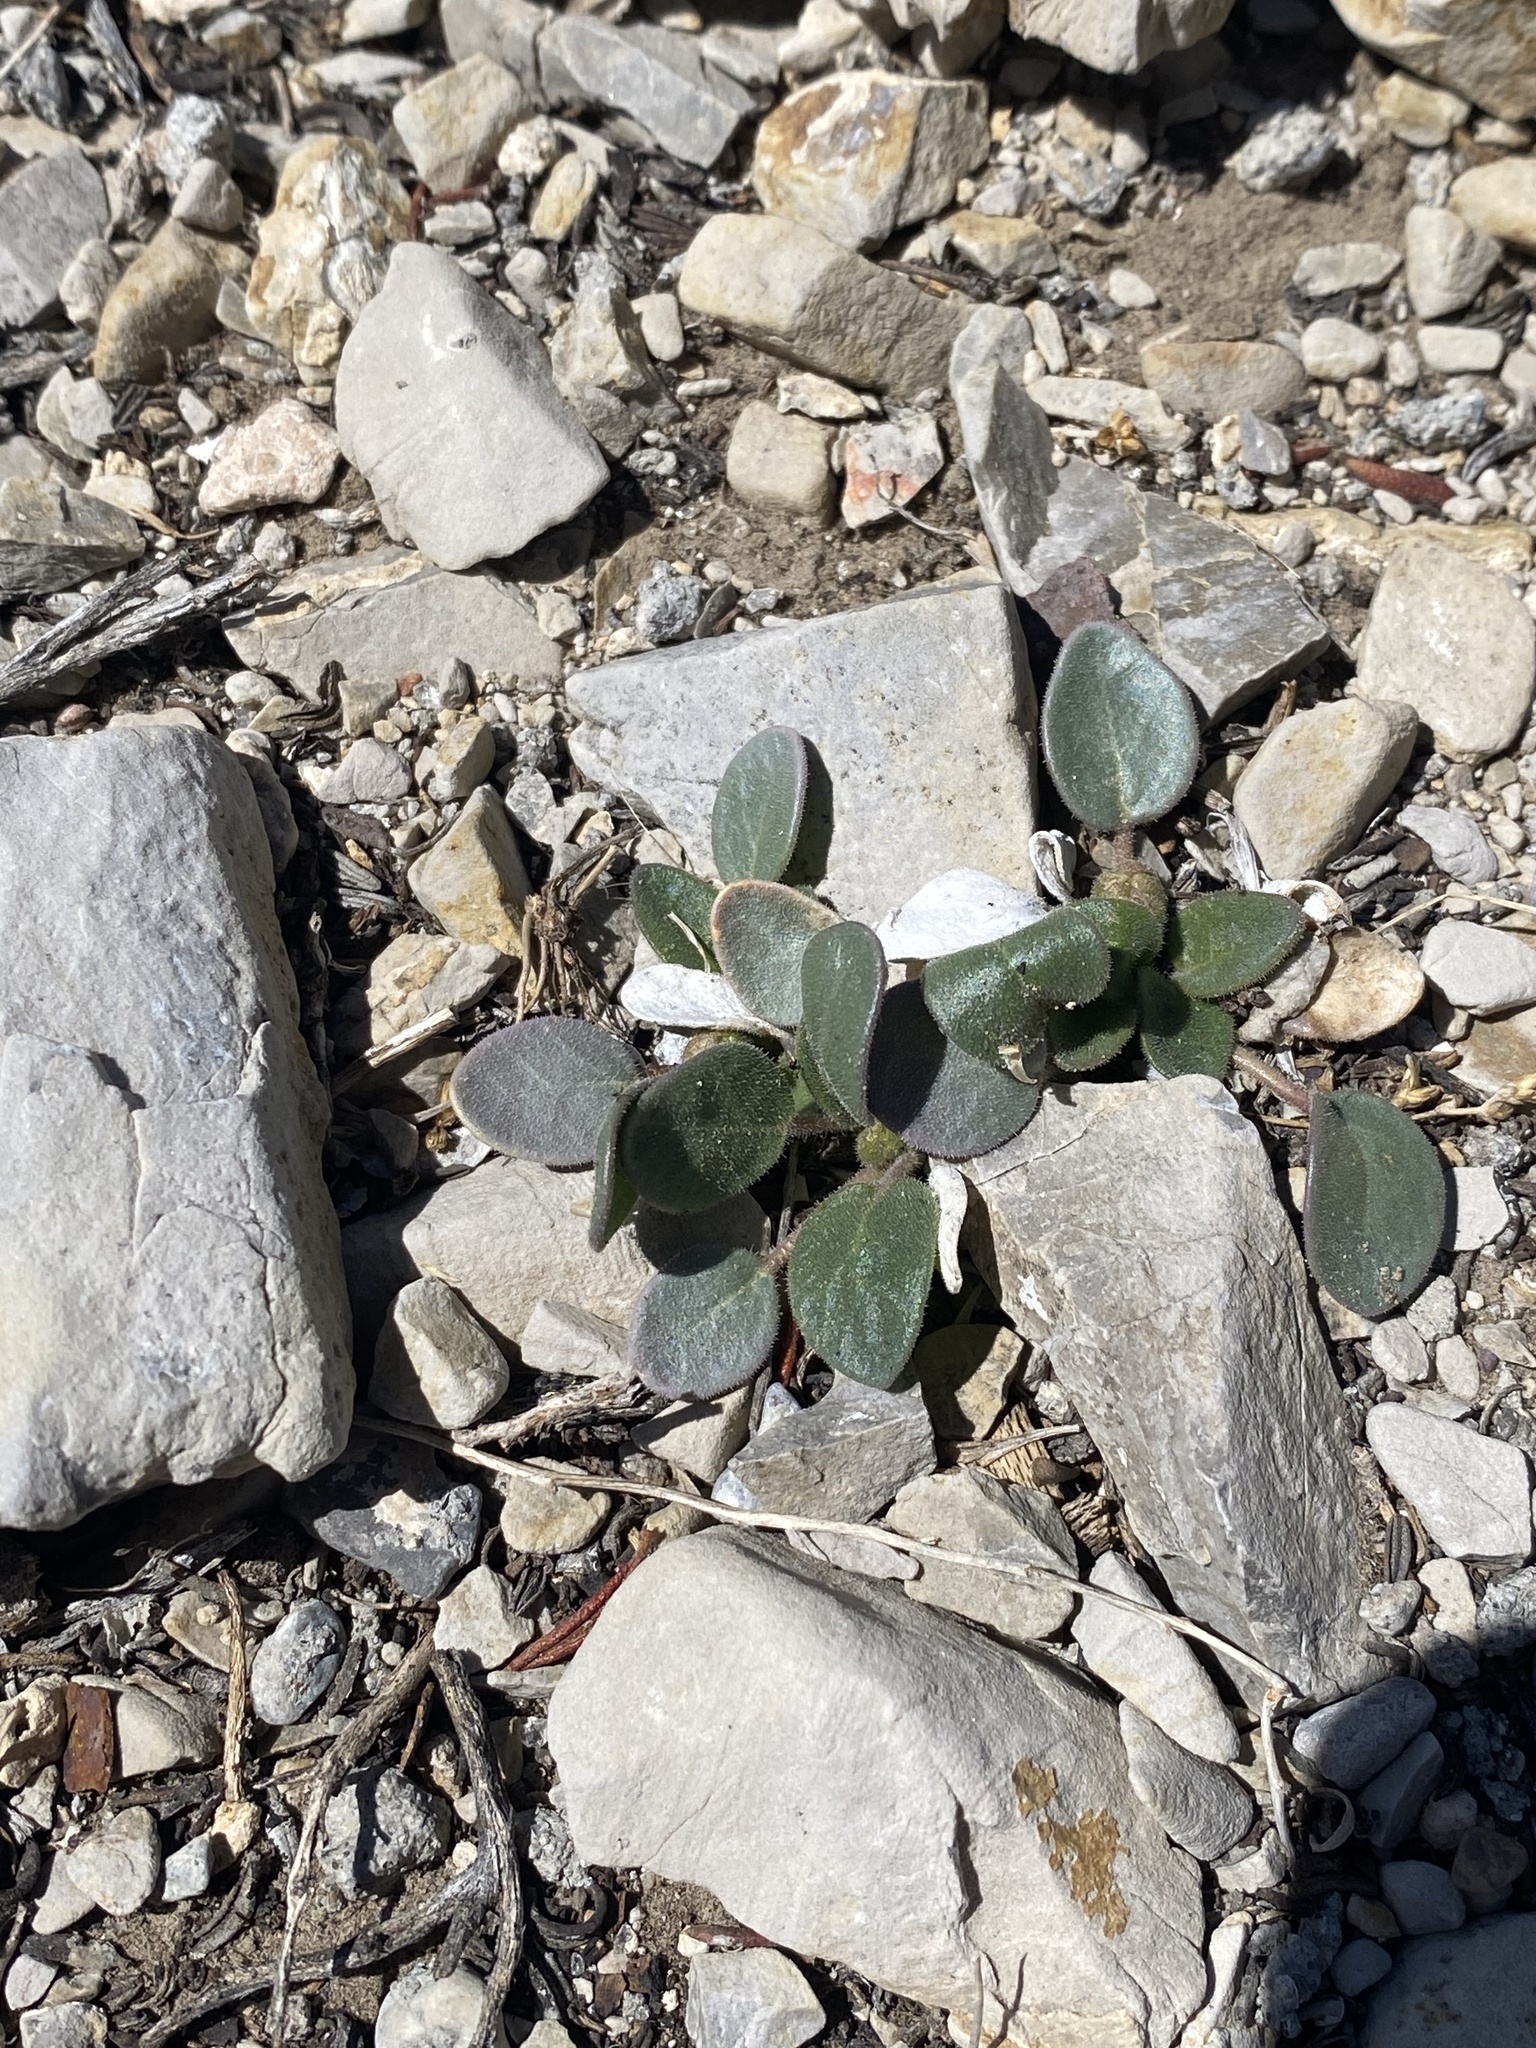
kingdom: Plantae
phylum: Tracheophyta
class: Magnoliopsida
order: Caryophyllales
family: Nyctaginaceae
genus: Abronia
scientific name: Abronia nana
